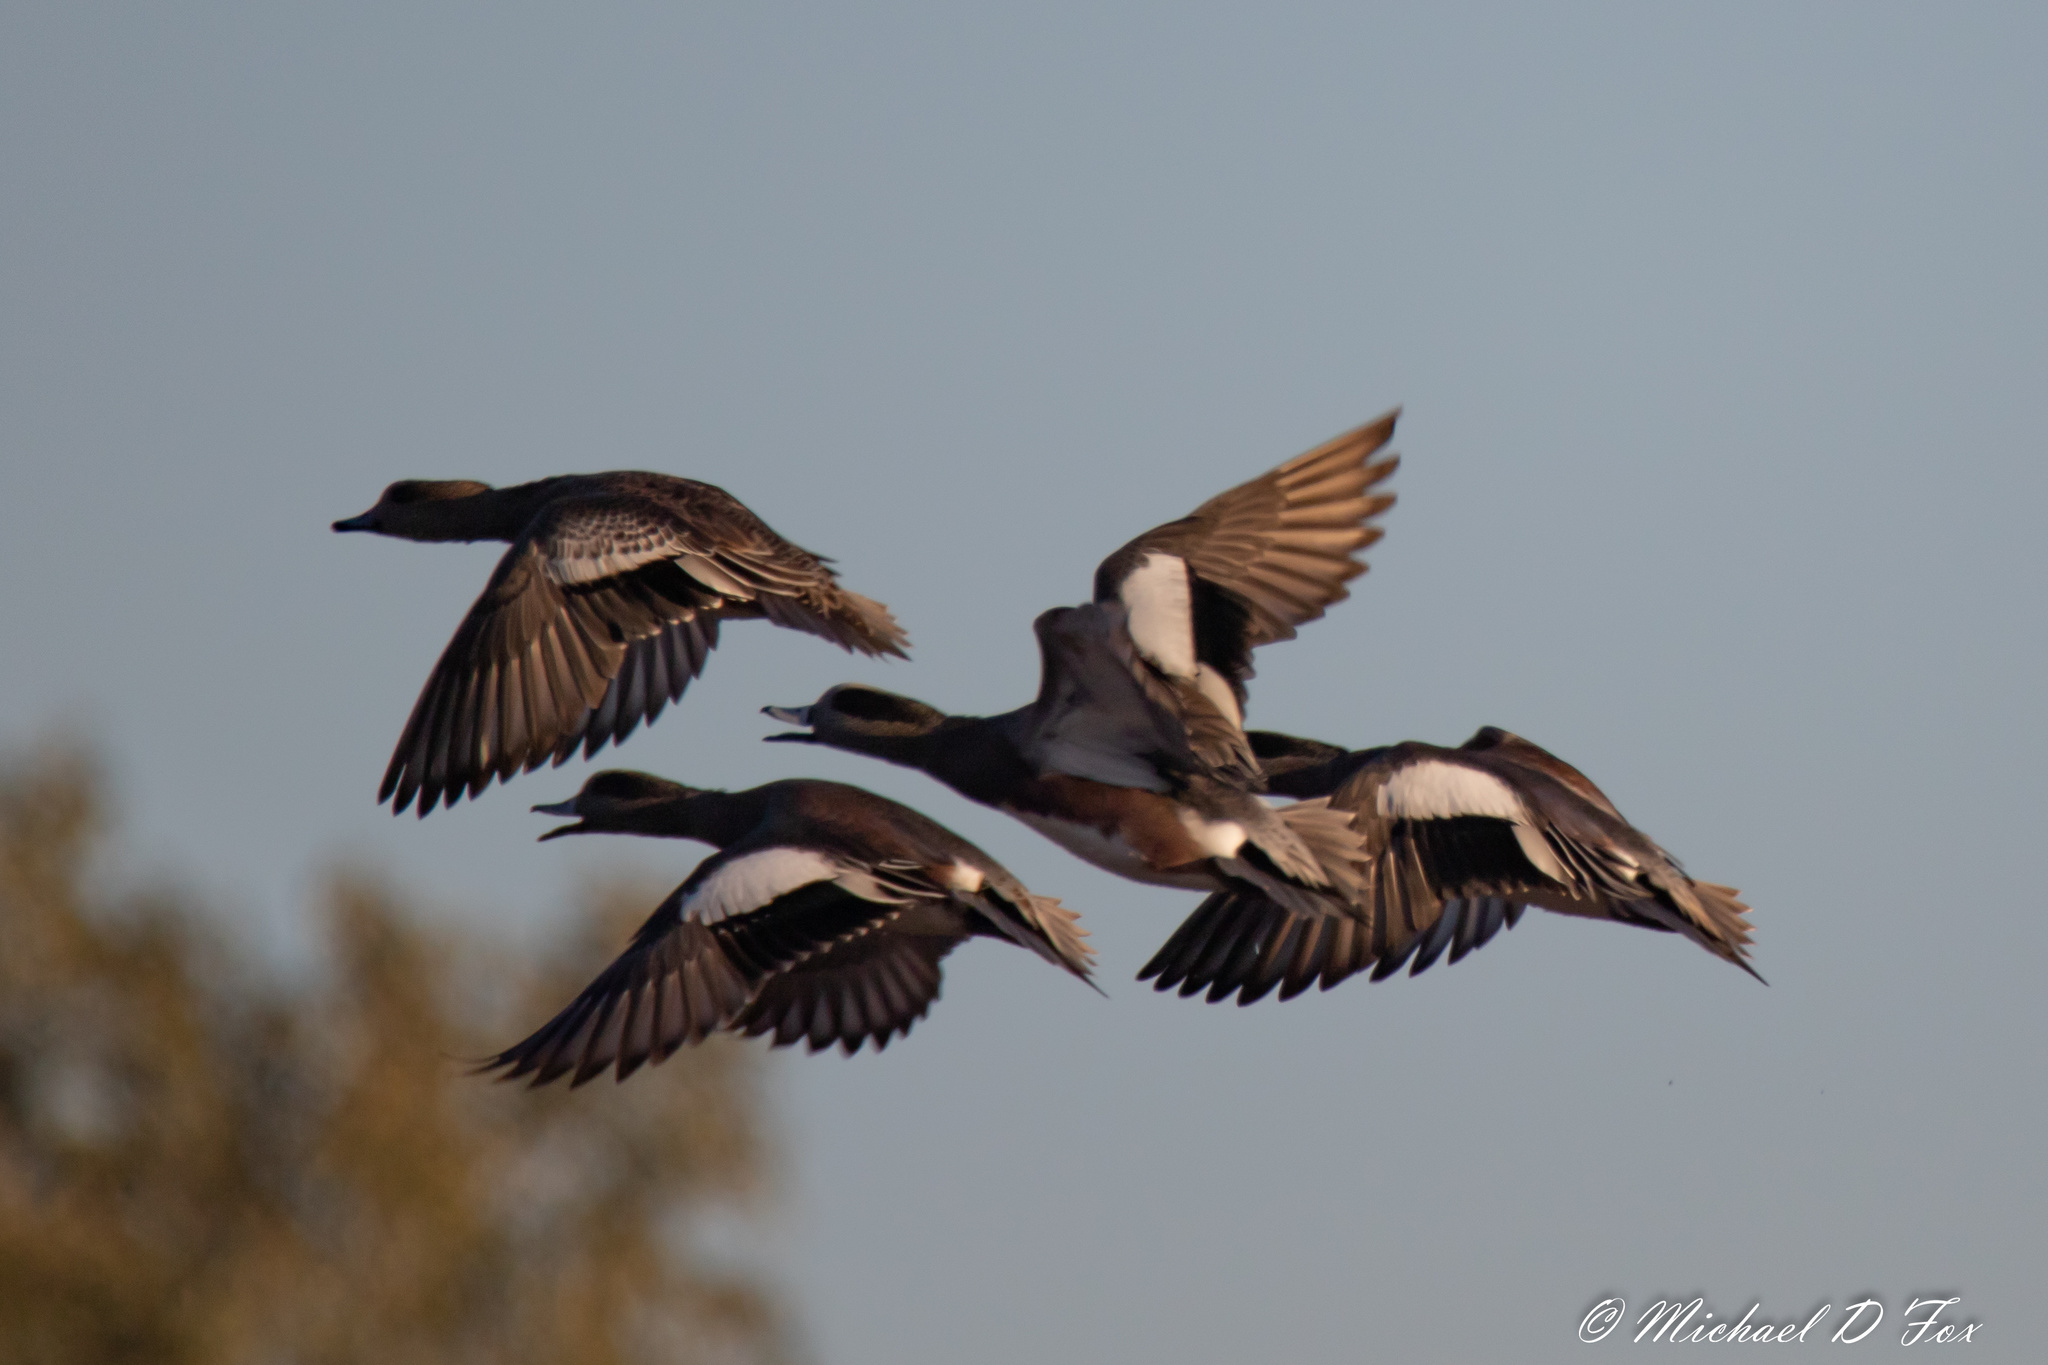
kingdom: Animalia
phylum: Chordata
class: Aves
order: Anseriformes
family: Anatidae
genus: Mareca
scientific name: Mareca americana
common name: American wigeon
